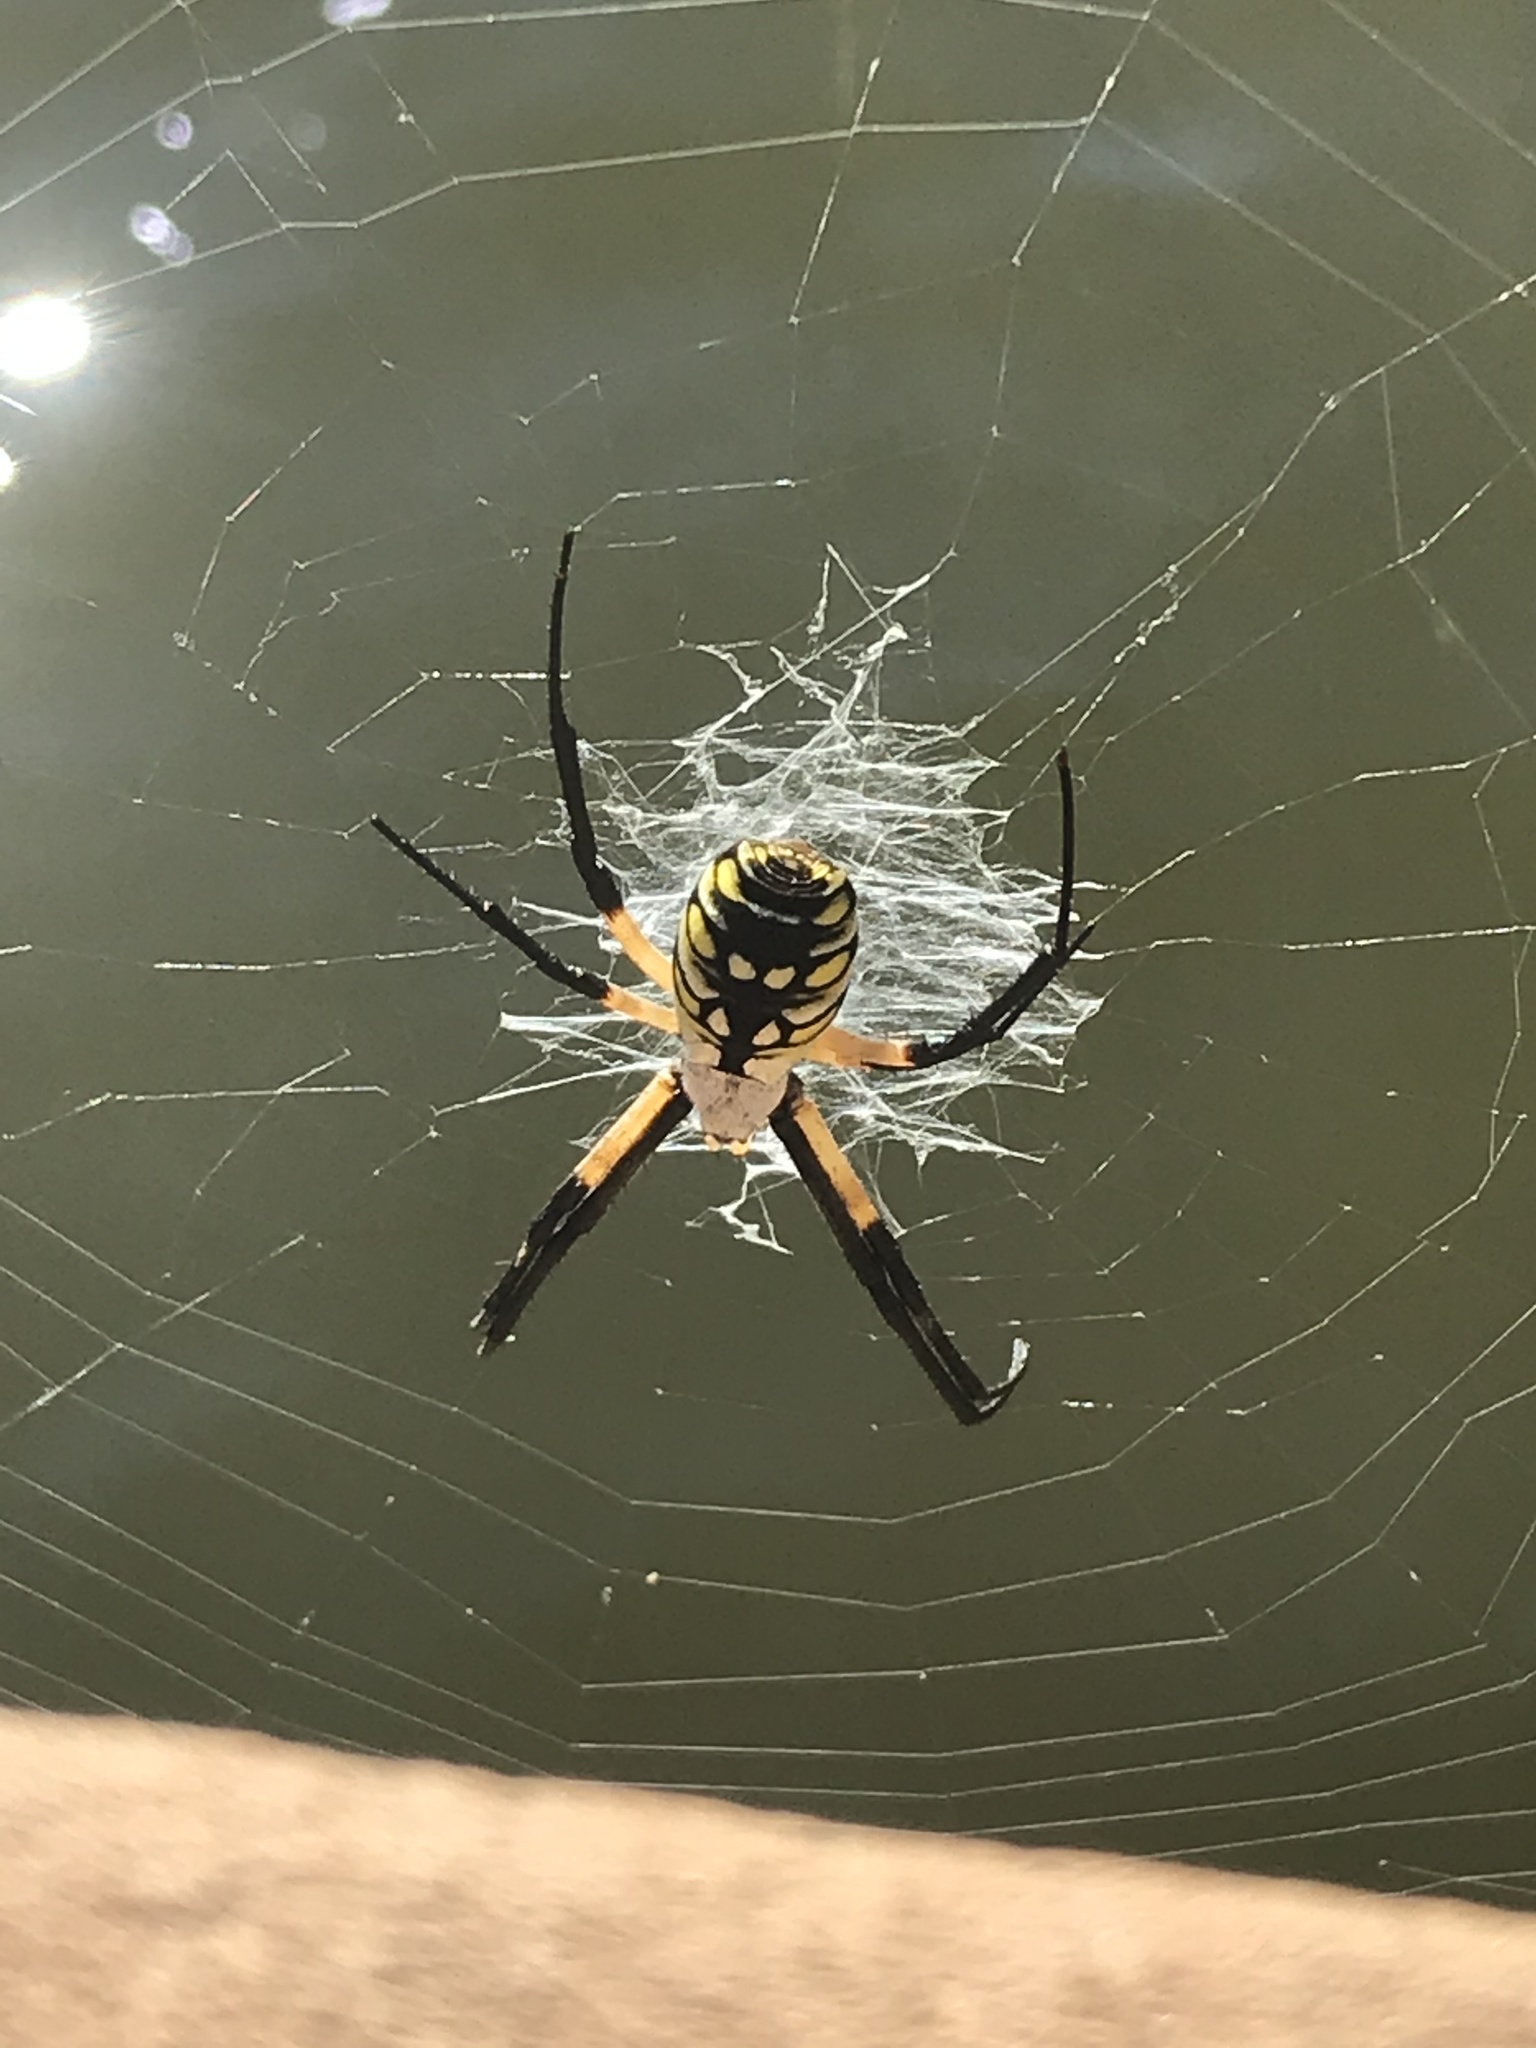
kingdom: Animalia
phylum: Arthropoda
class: Arachnida
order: Araneae
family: Araneidae
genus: Argiope
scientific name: Argiope aurantia
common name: Orb weavers
